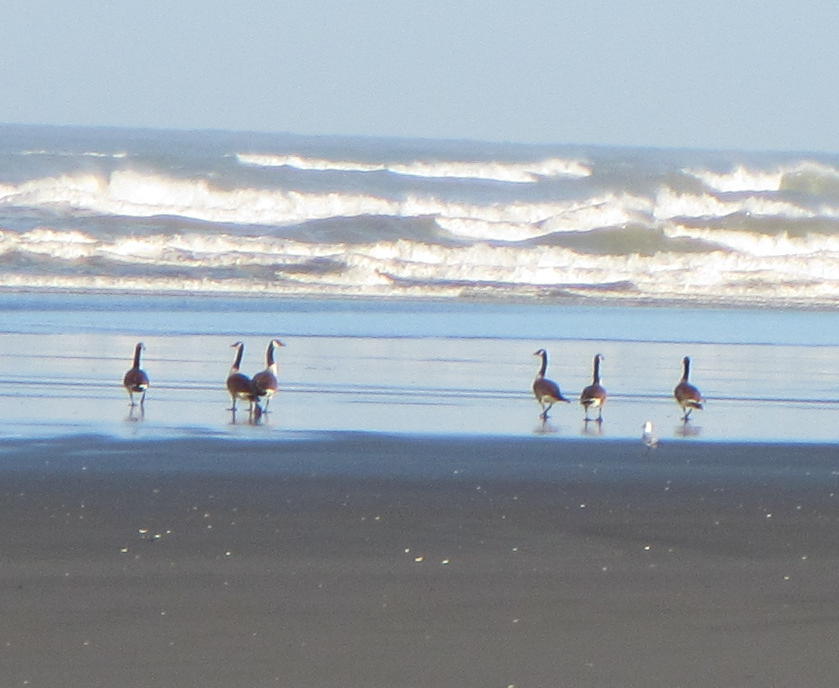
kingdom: Animalia
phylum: Chordata
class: Aves
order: Anseriformes
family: Anatidae
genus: Branta
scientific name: Branta canadensis
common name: Canada goose
